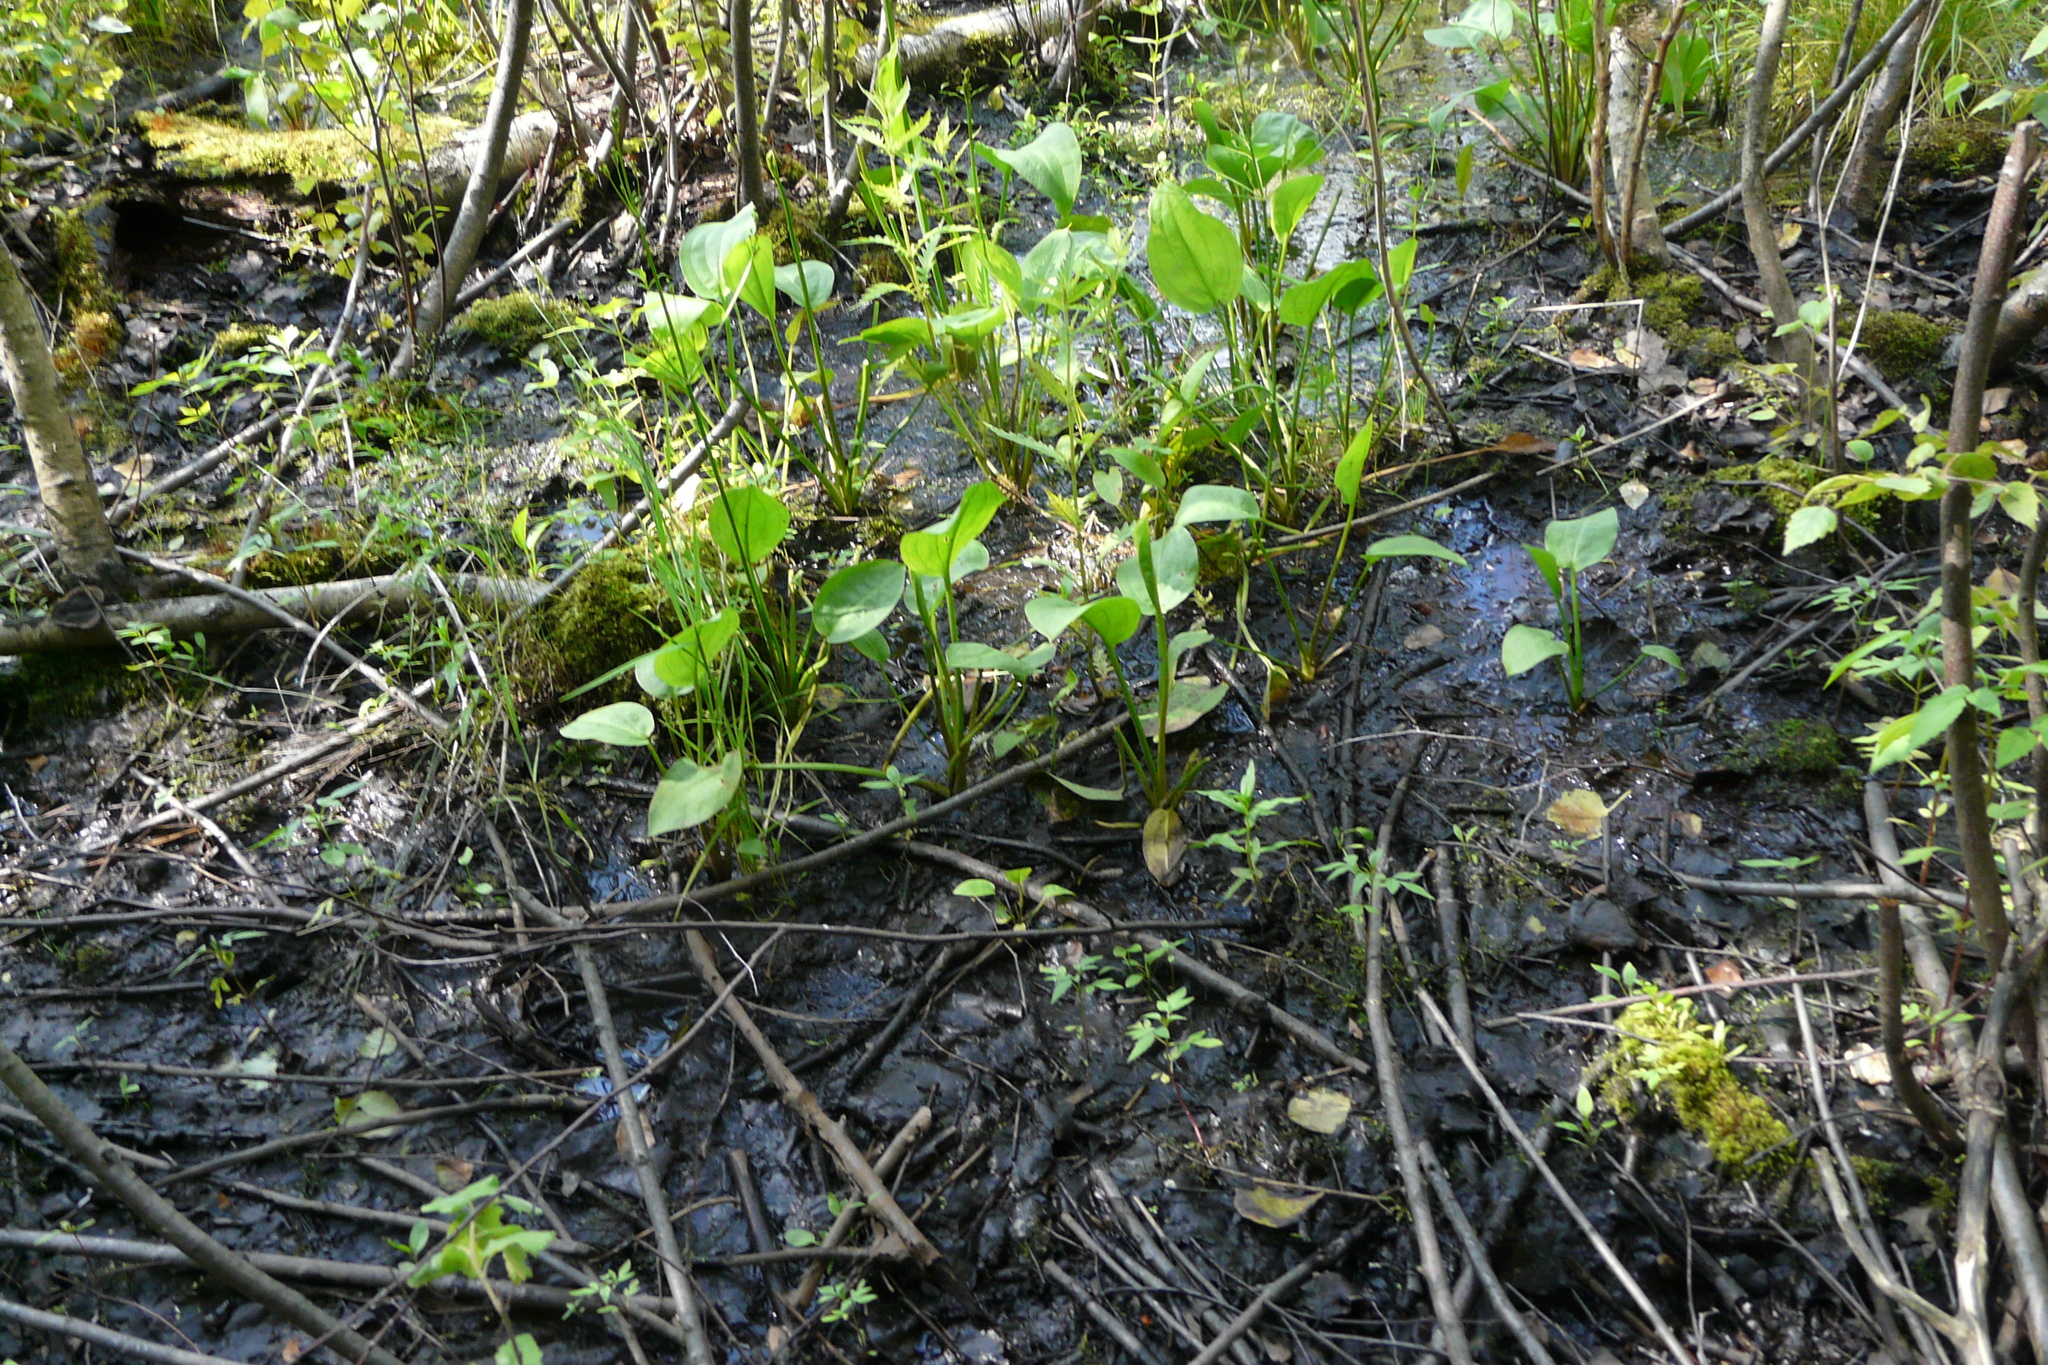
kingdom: Plantae
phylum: Tracheophyta
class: Liliopsida
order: Alismatales
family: Alismataceae
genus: Alisma
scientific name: Alisma plantago-aquatica
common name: Water-plantain
